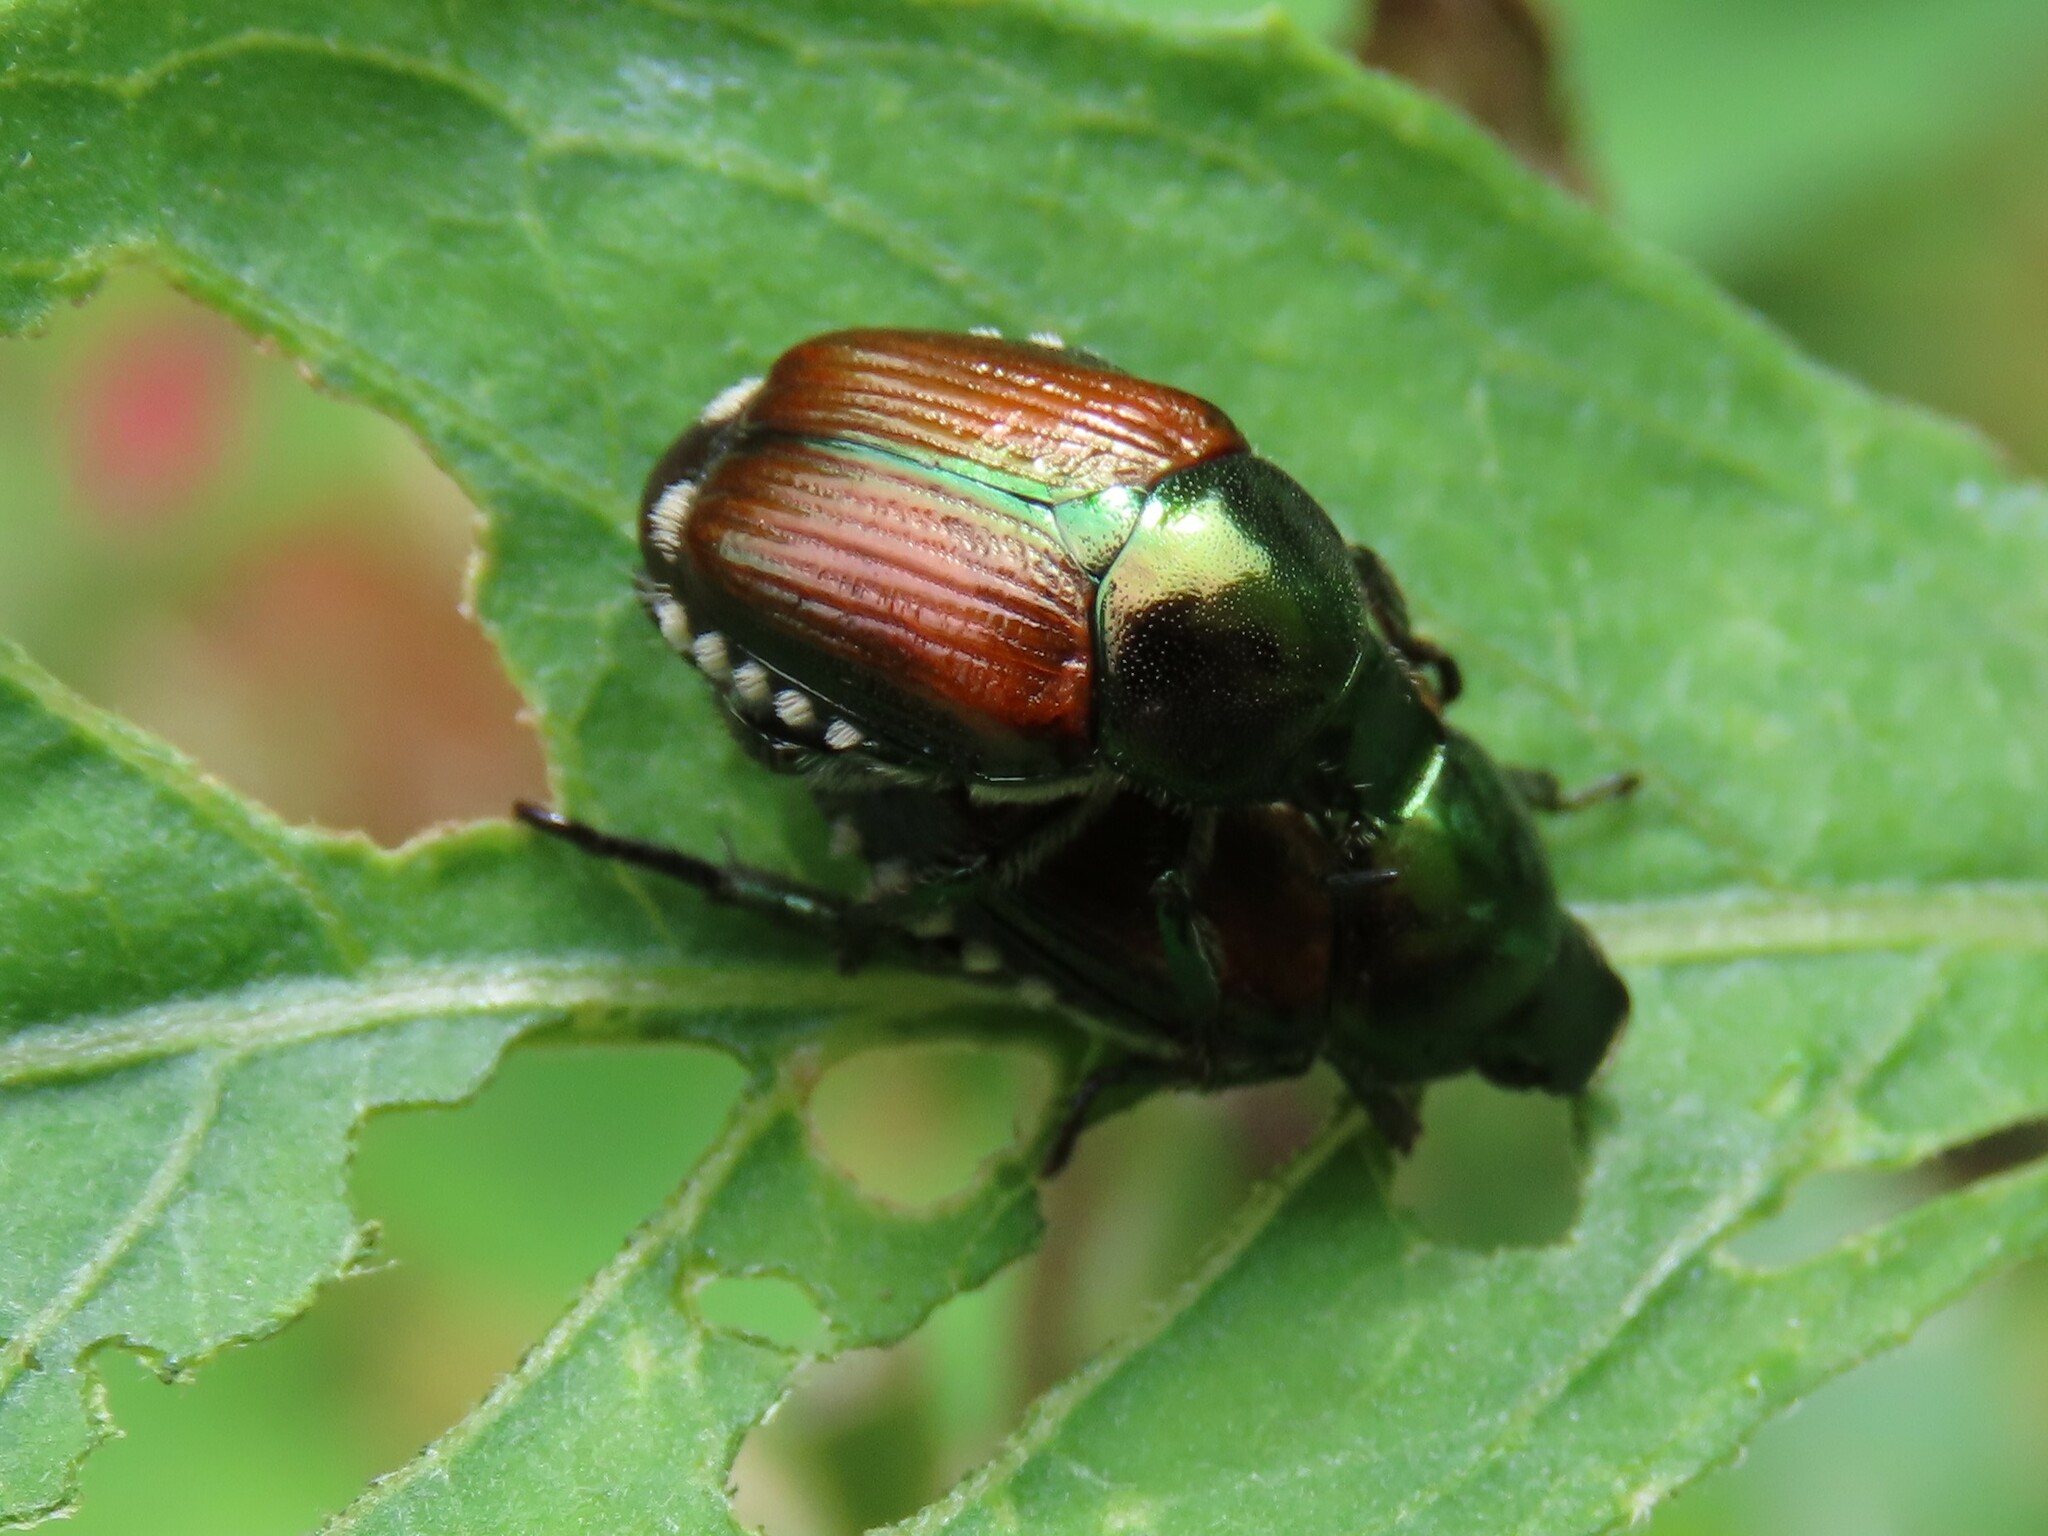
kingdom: Animalia
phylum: Arthropoda
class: Insecta
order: Coleoptera
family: Scarabaeidae
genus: Popillia
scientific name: Popillia japonica
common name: Japanese beetle
